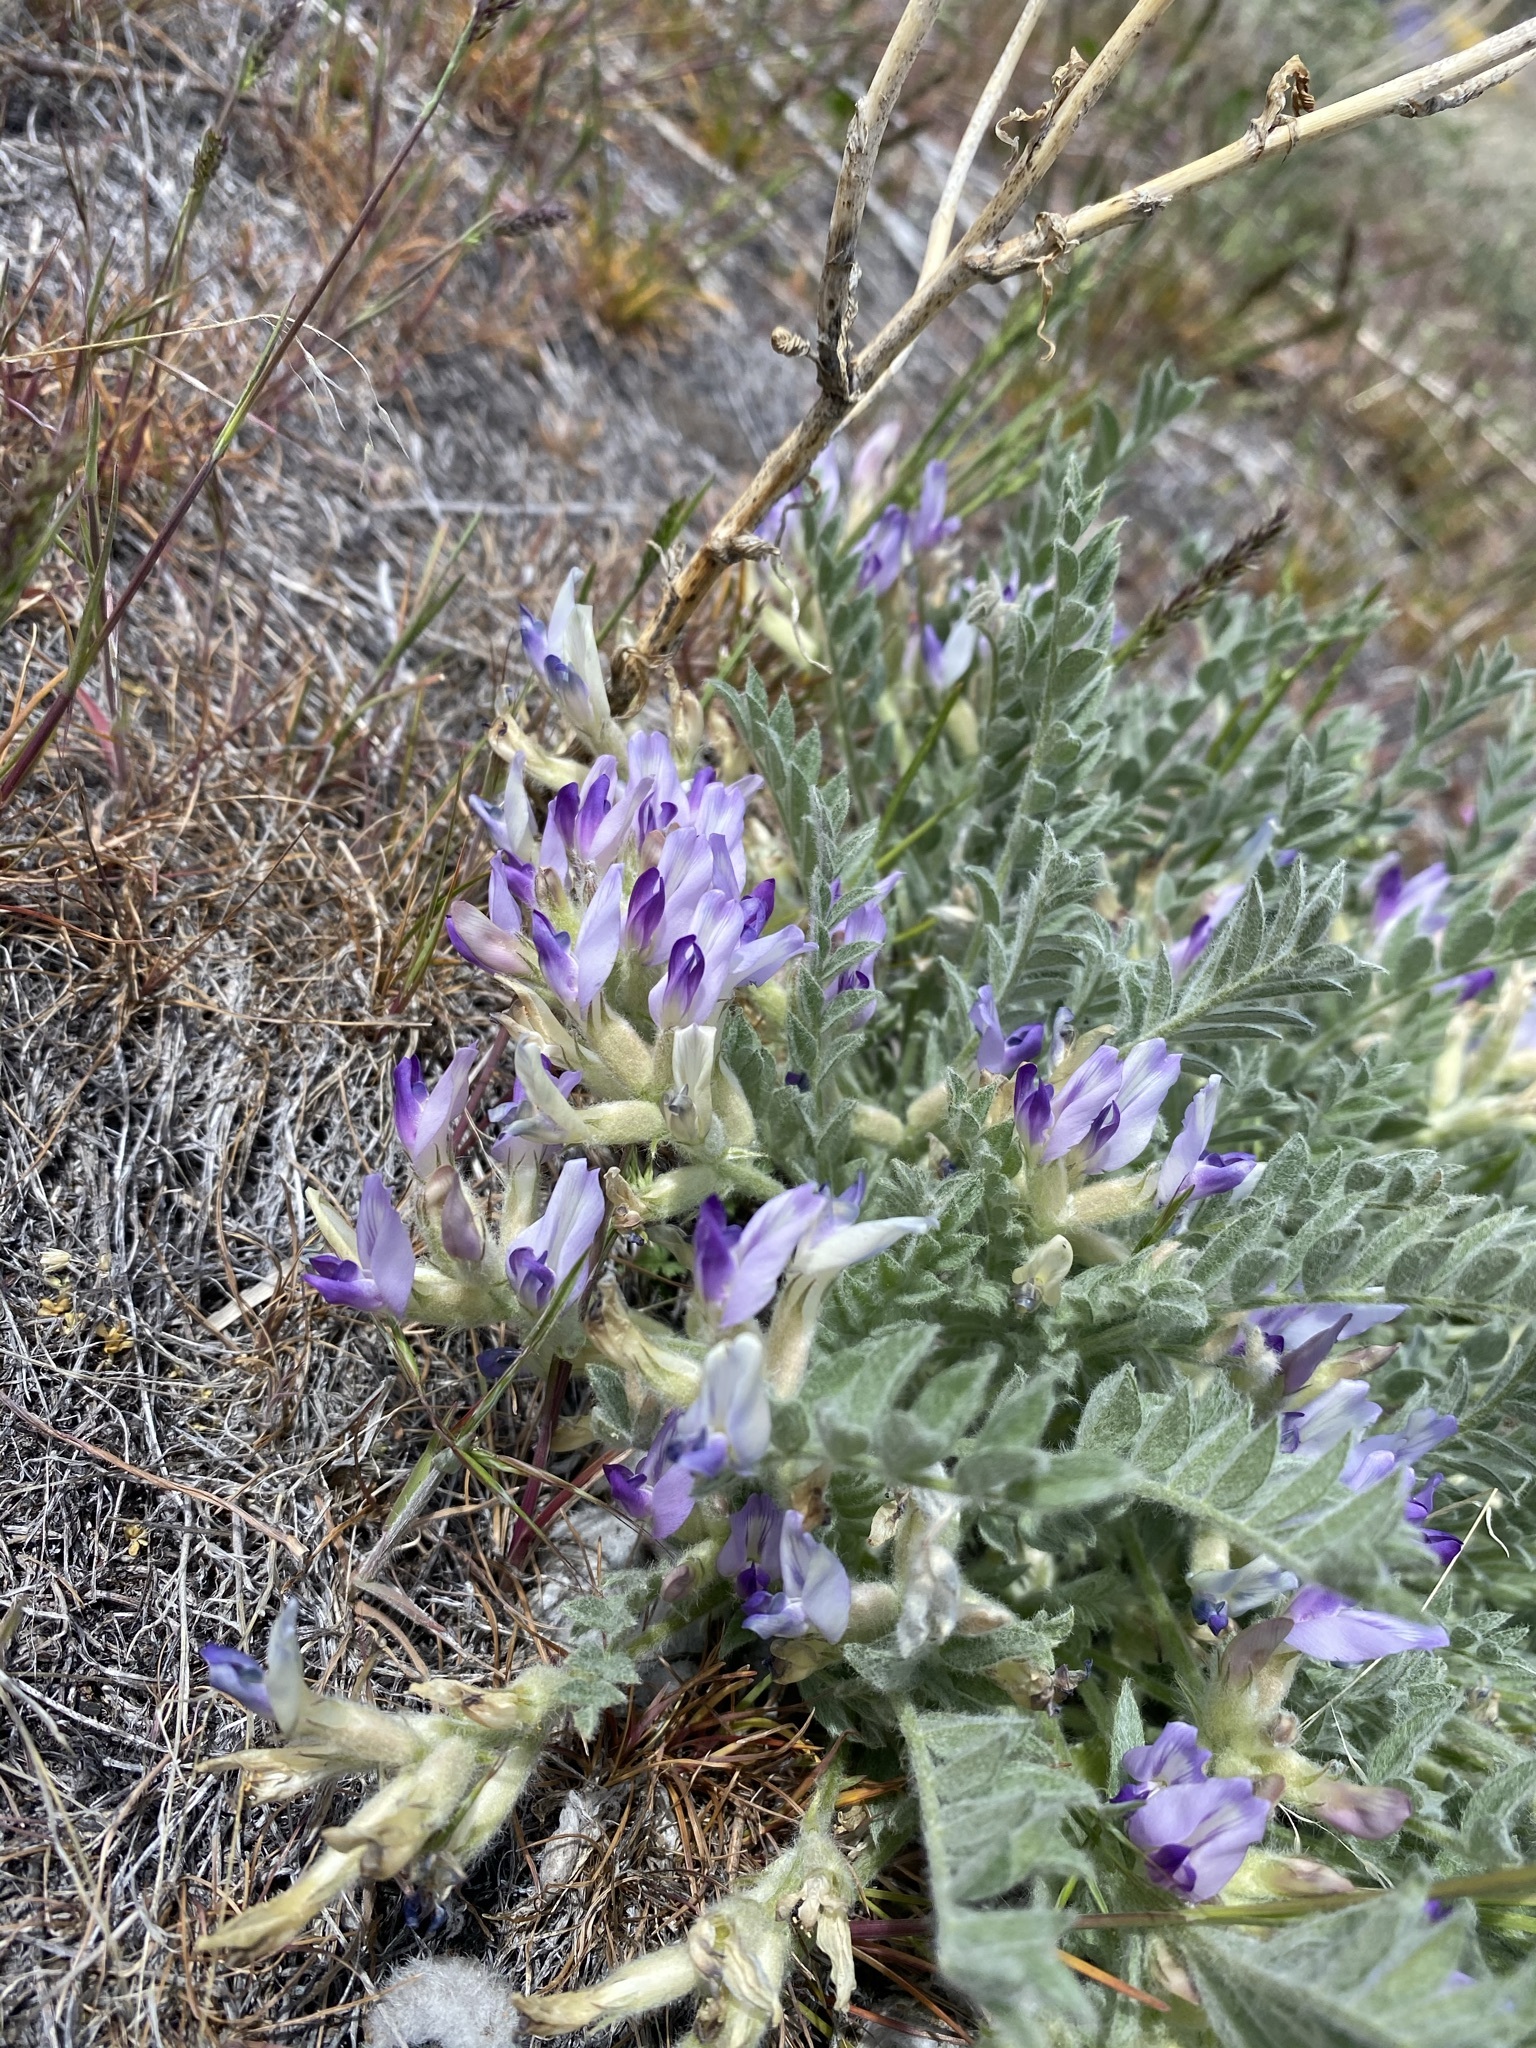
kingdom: Plantae
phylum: Tracheophyta
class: Magnoliopsida
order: Fabales
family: Fabaceae
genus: Astragalus
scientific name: Astragalus purshii
